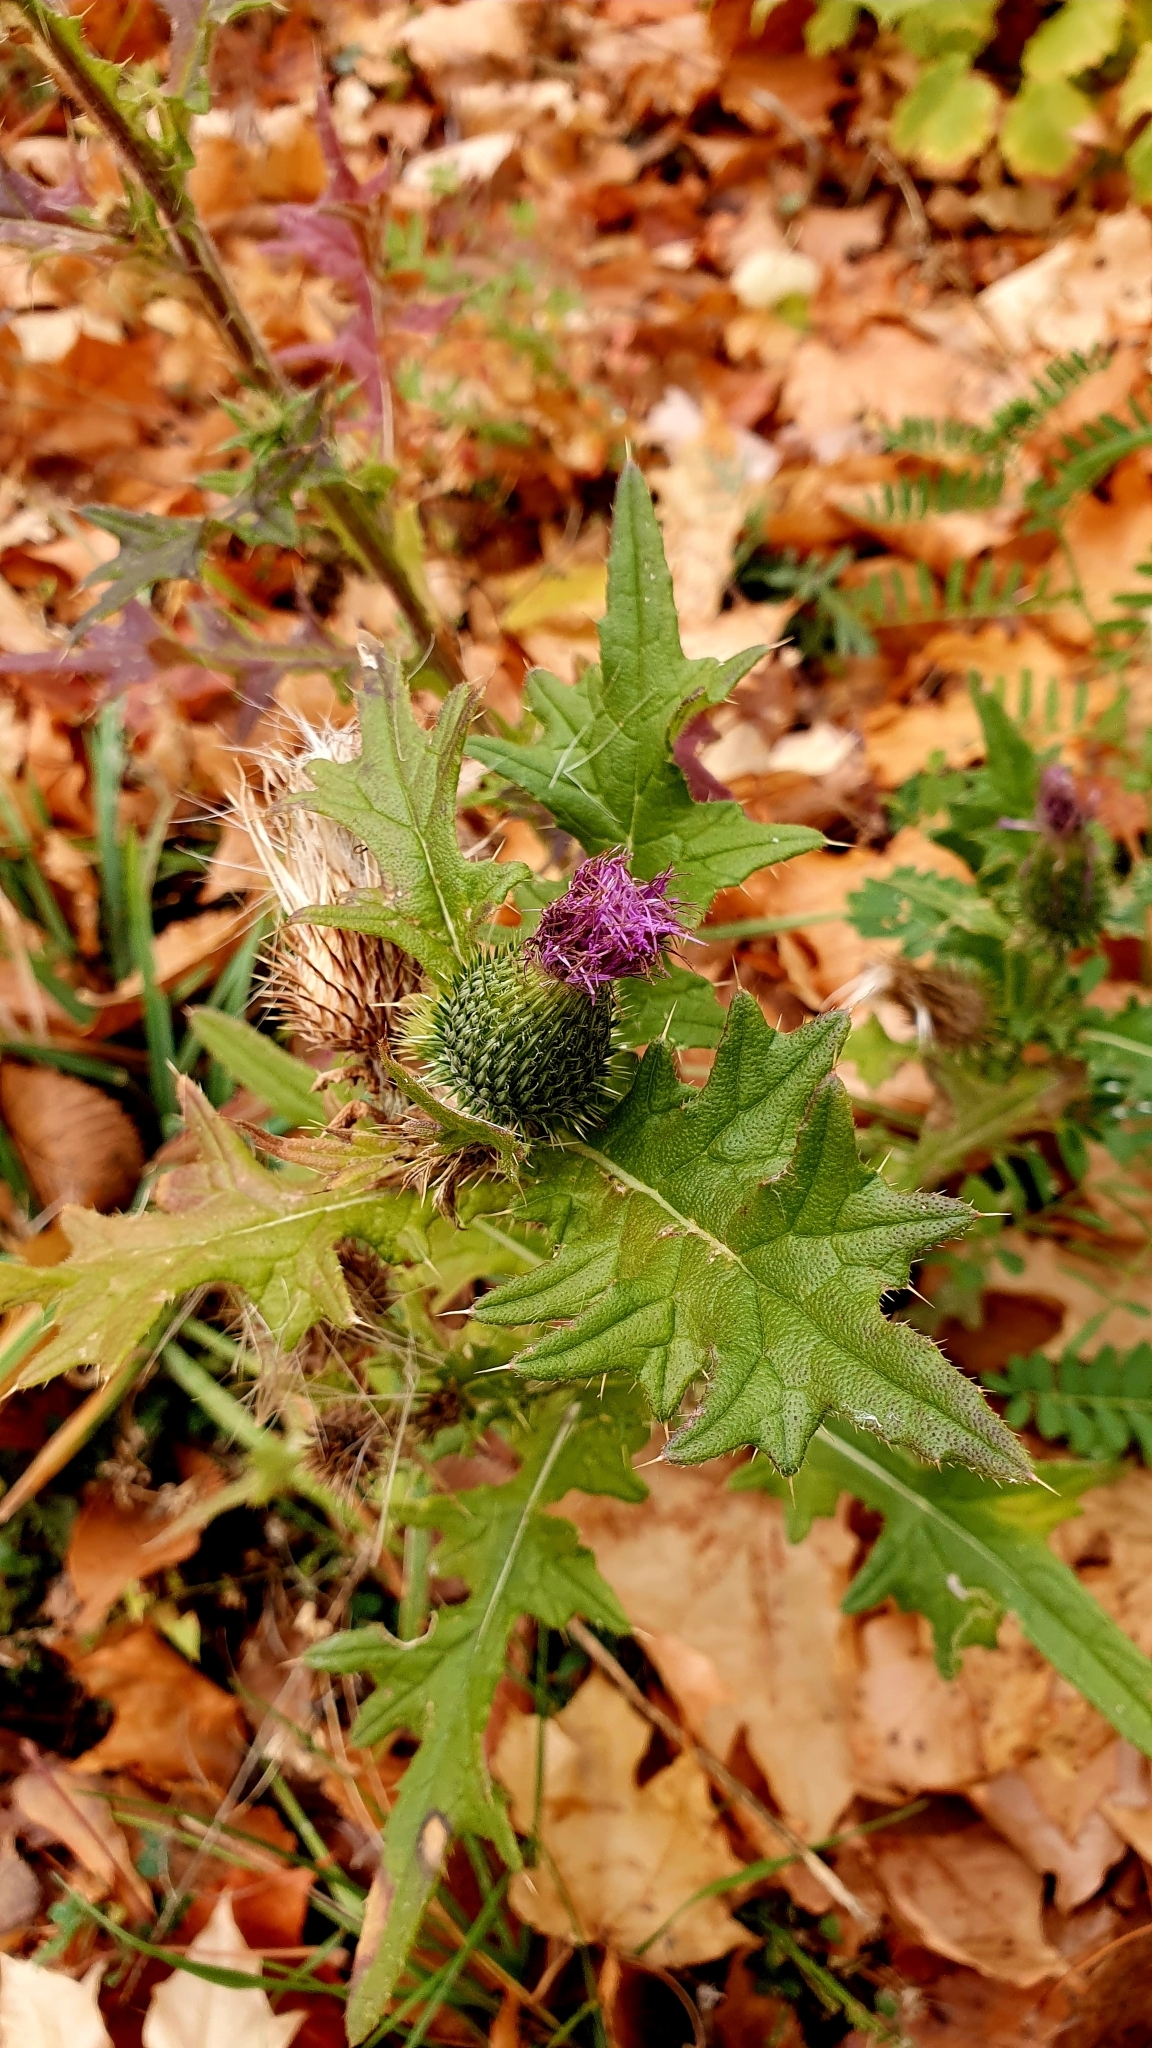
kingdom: Plantae
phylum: Tracheophyta
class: Magnoliopsida
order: Asterales
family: Asteraceae
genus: Cirsium
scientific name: Cirsium vulgare
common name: Bull thistle
